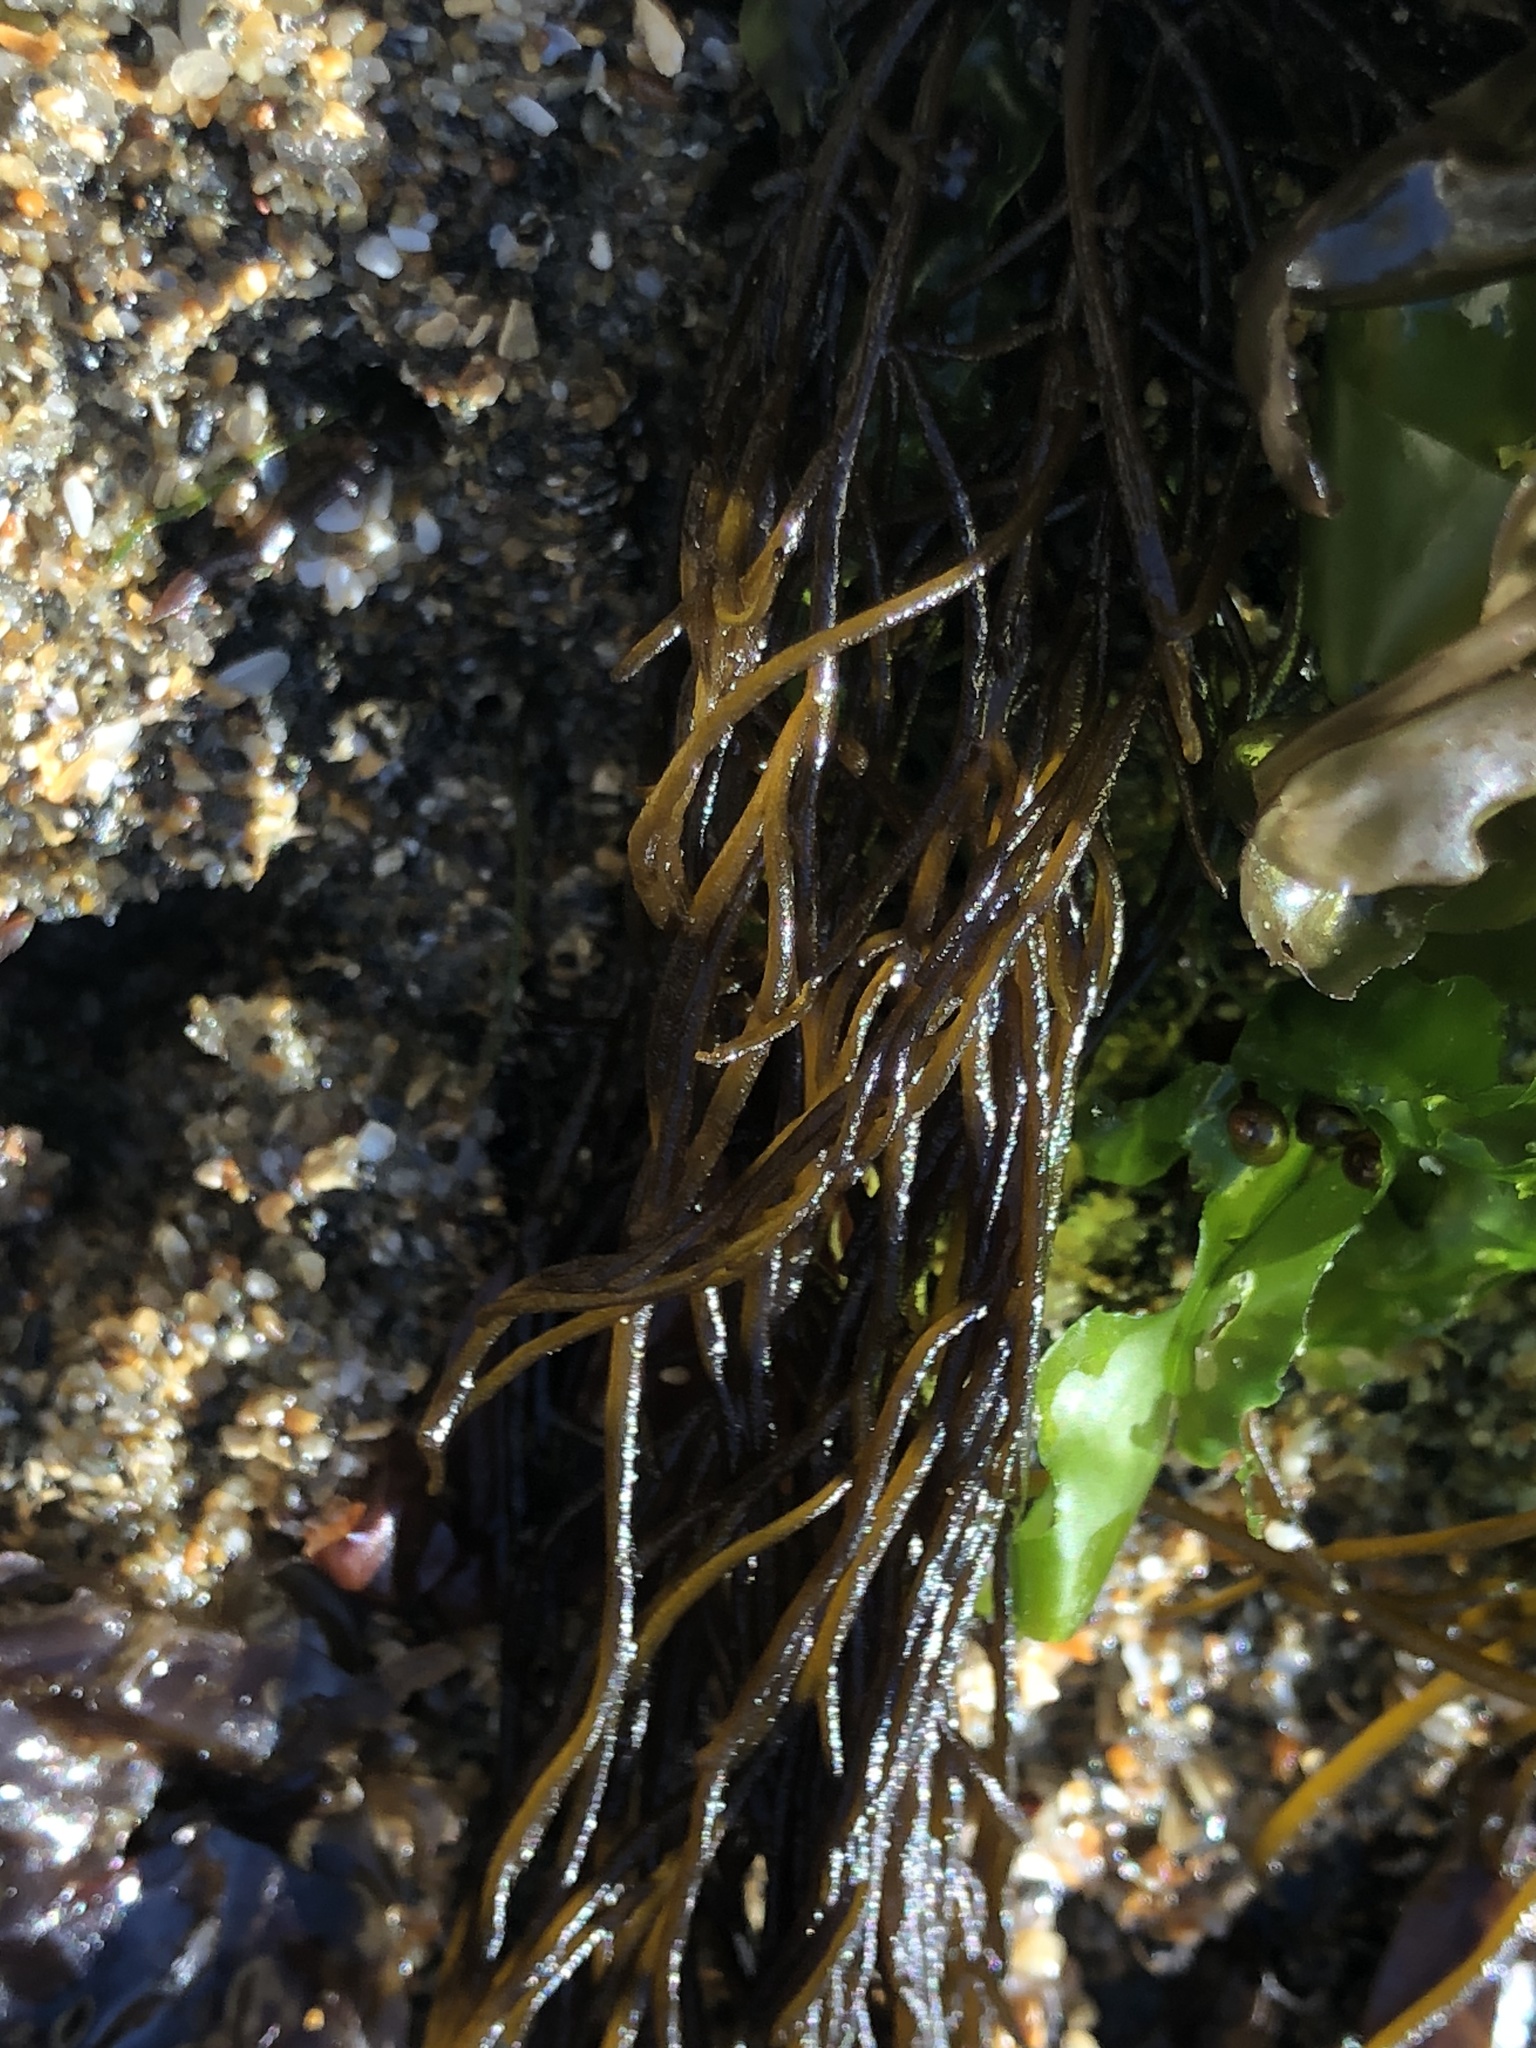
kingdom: Chromista
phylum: Ochrophyta
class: Phaeophyceae
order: Ectocarpales
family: Chordariaceae
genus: Haplogloia
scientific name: Haplogloia andersonii
